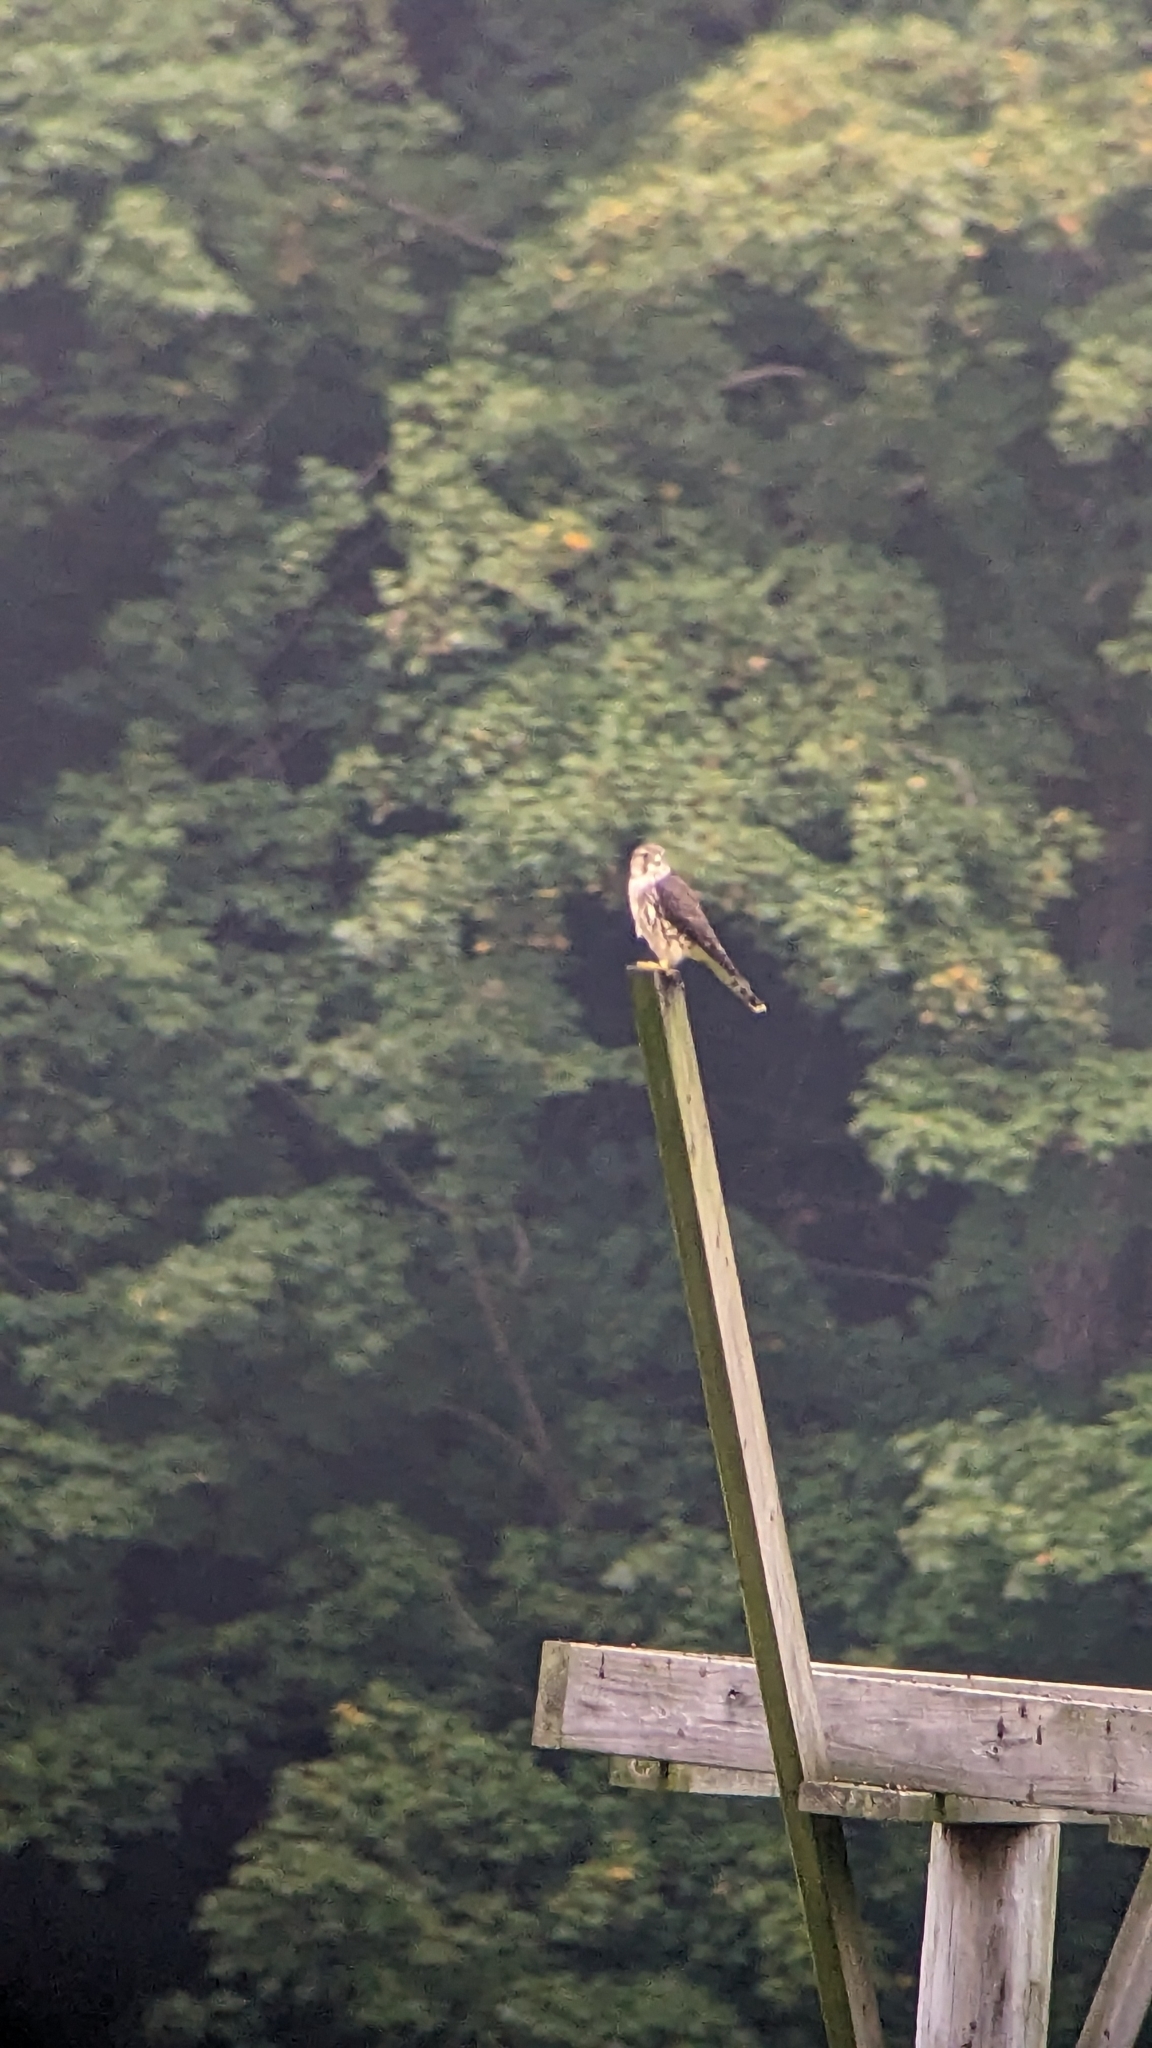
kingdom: Animalia
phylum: Chordata
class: Aves
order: Falconiformes
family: Falconidae
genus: Falco
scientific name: Falco columbarius
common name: Merlin
